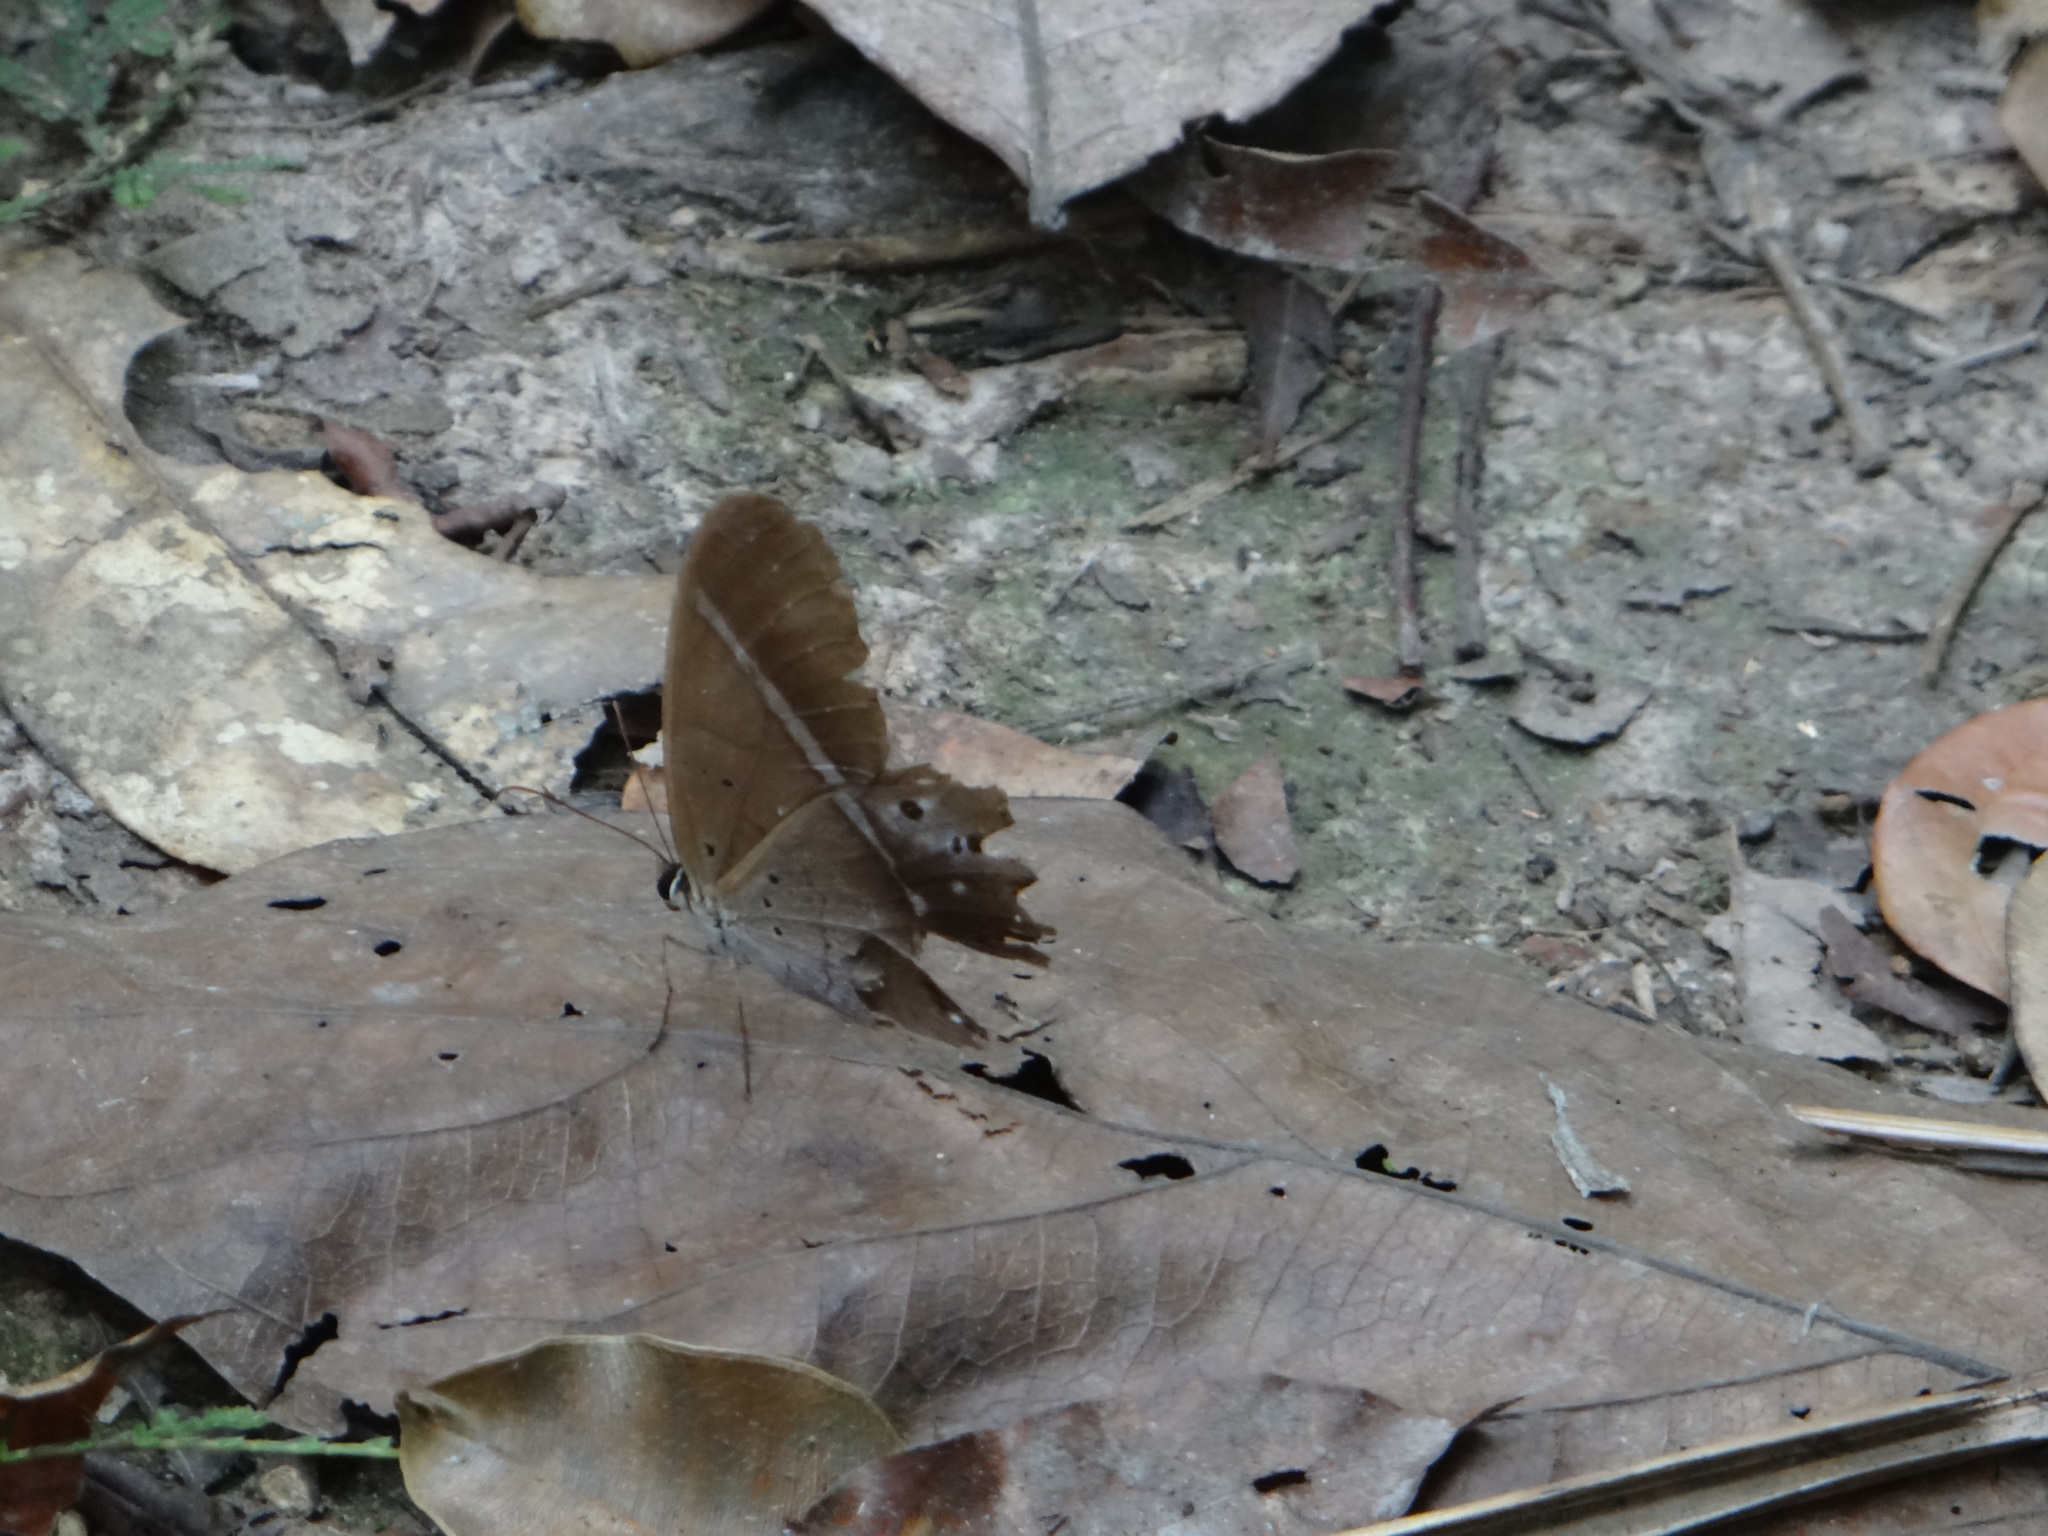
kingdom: Animalia
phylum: Arthropoda
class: Insecta
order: Lepidoptera
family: Nymphalidae
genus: Pierella
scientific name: Pierella dracontis
